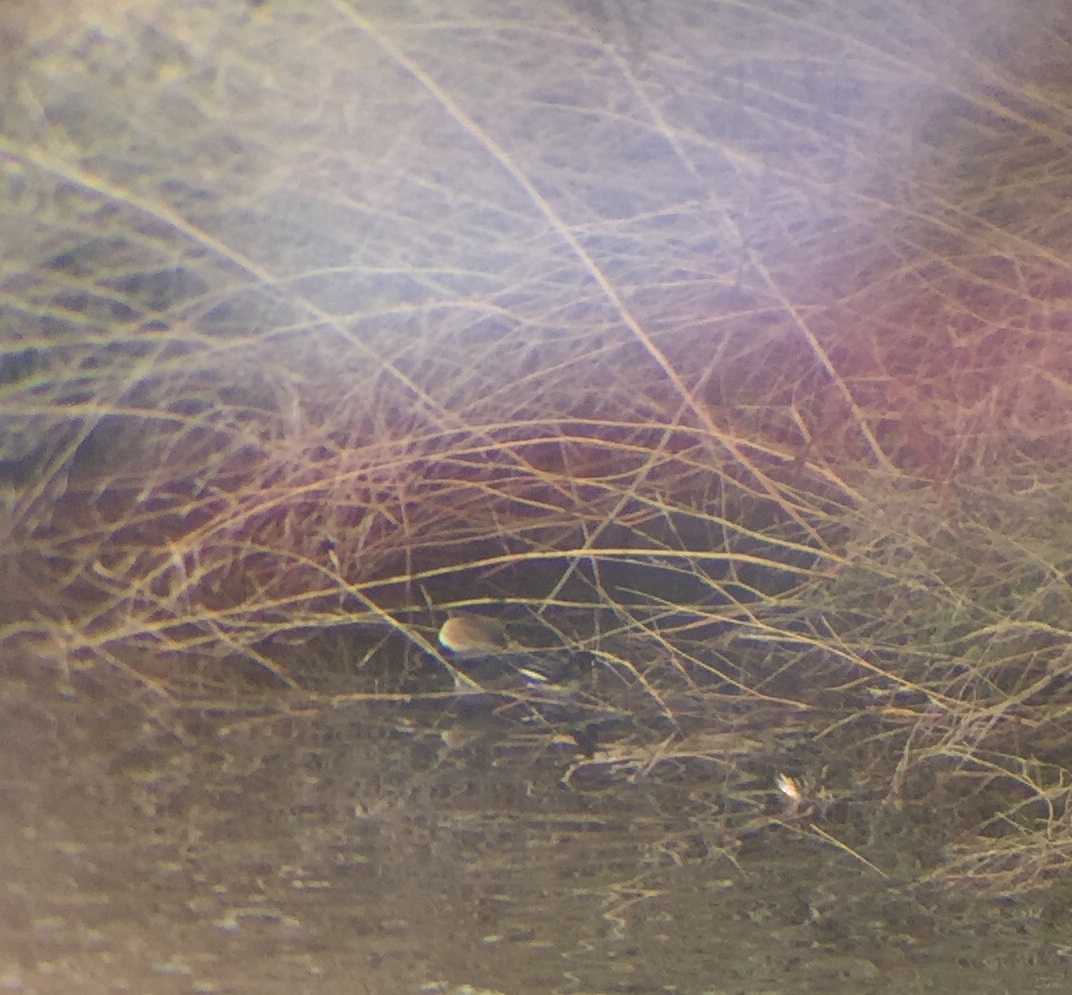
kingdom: Animalia
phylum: Chordata
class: Aves
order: Anseriformes
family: Anatidae
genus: Lophodytes
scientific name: Lophodytes cucullatus
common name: Hooded merganser
